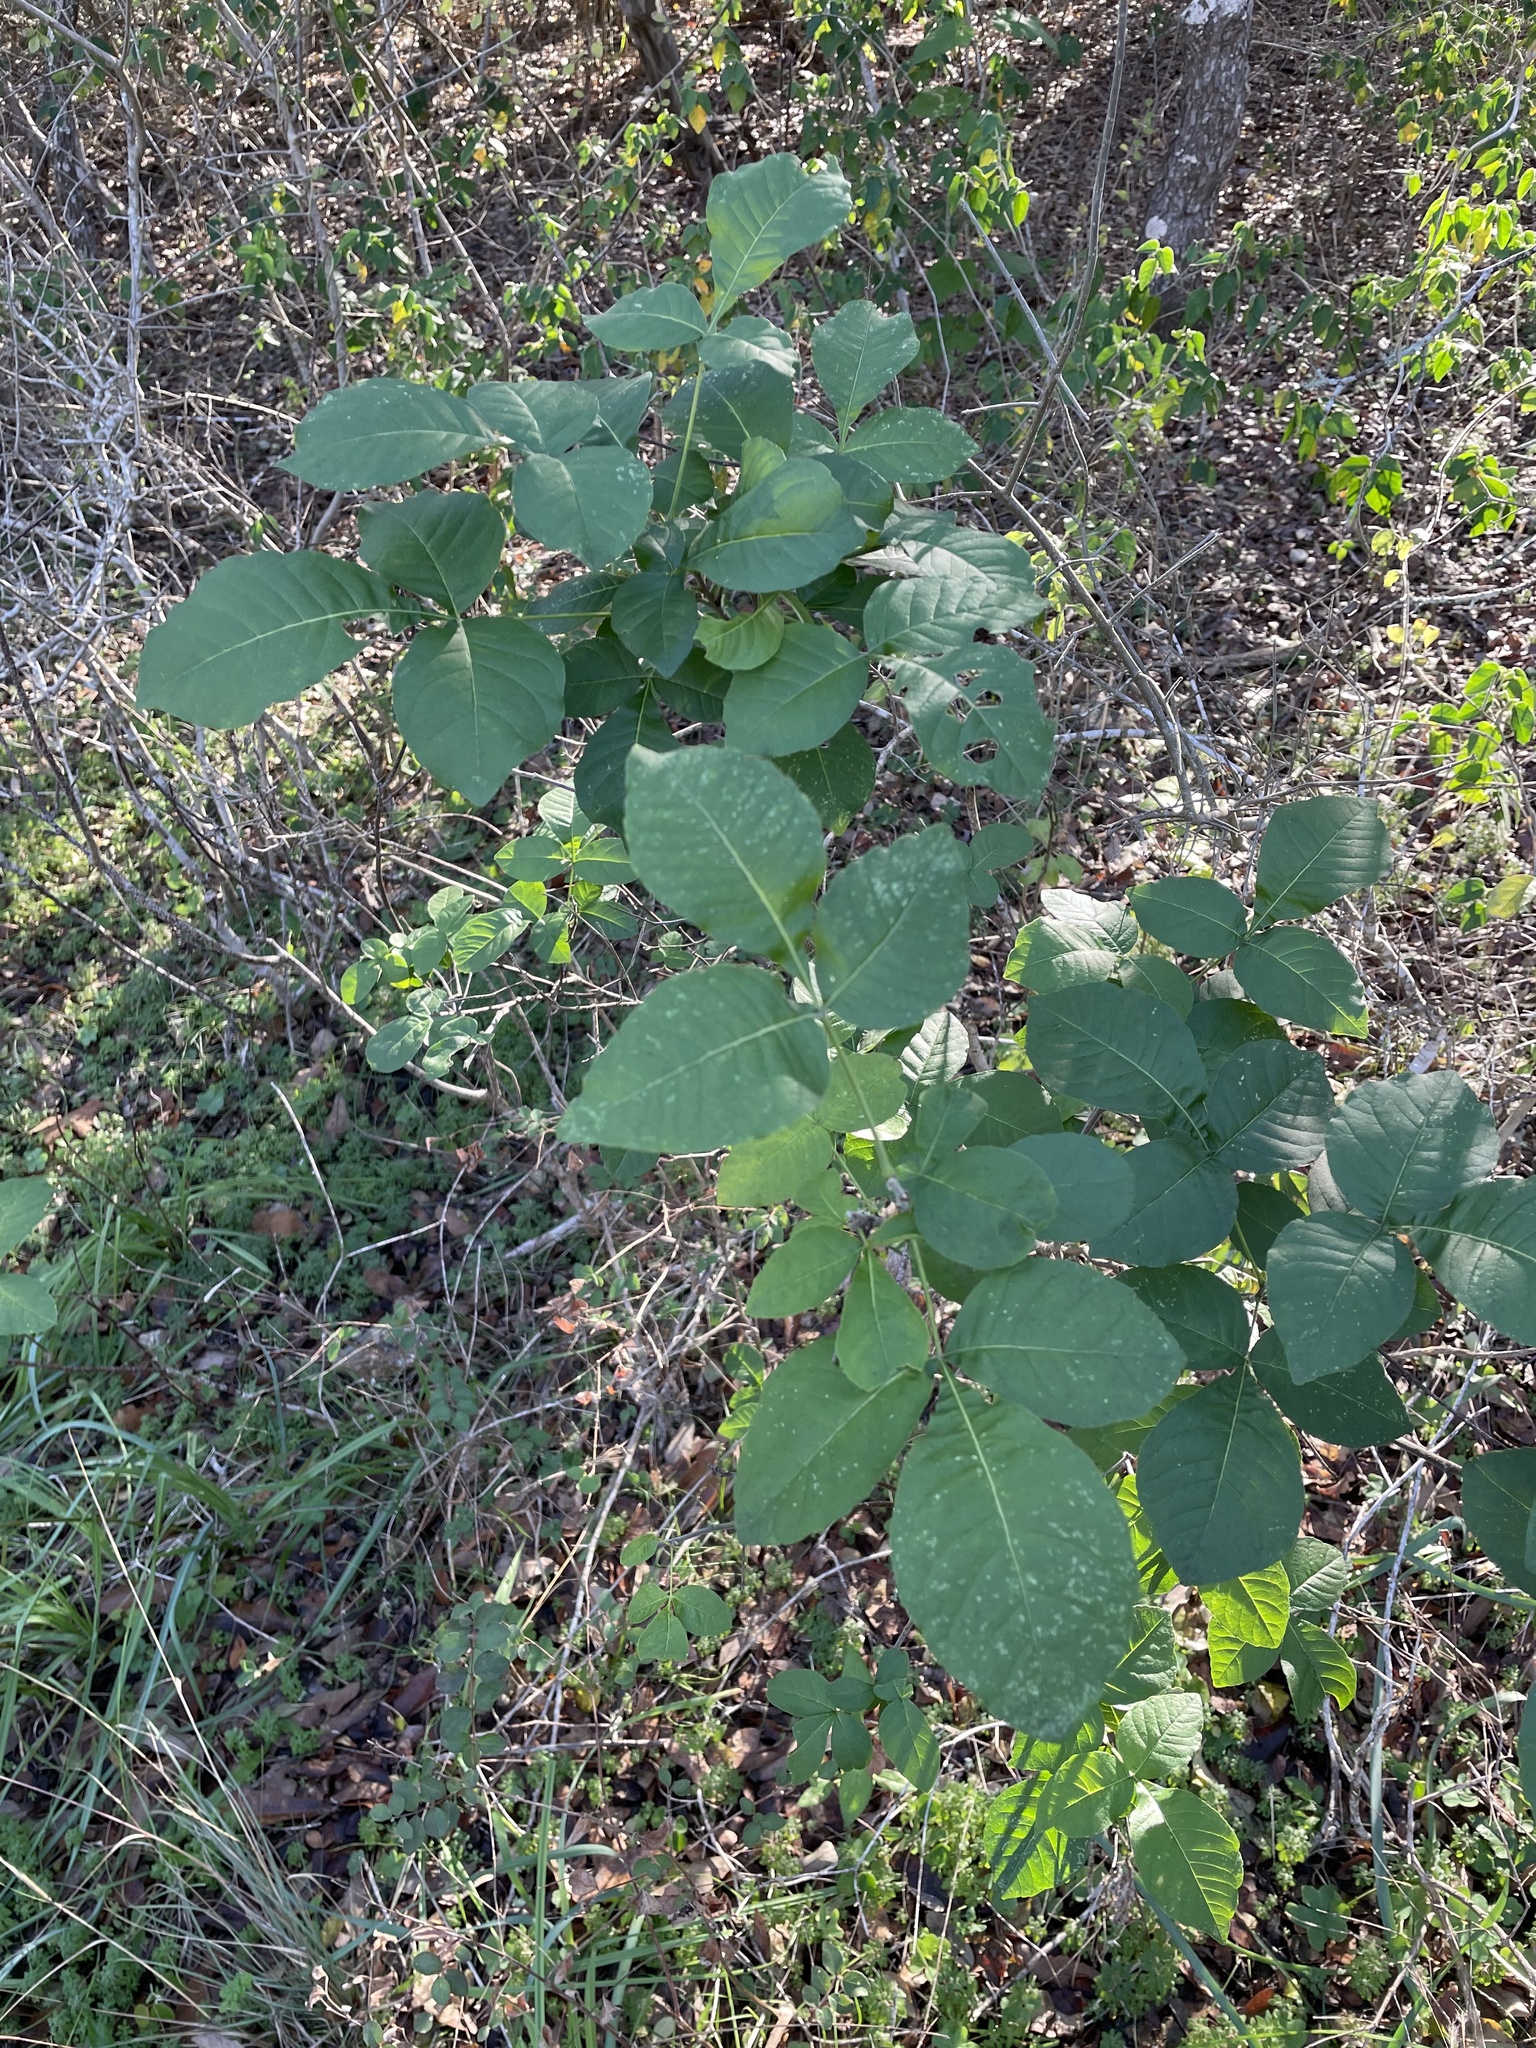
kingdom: Plantae
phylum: Tracheophyta
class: Magnoliopsida
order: Sapindales
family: Rutaceae
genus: Ptelea
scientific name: Ptelea trifoliata
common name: Common hop-tree
